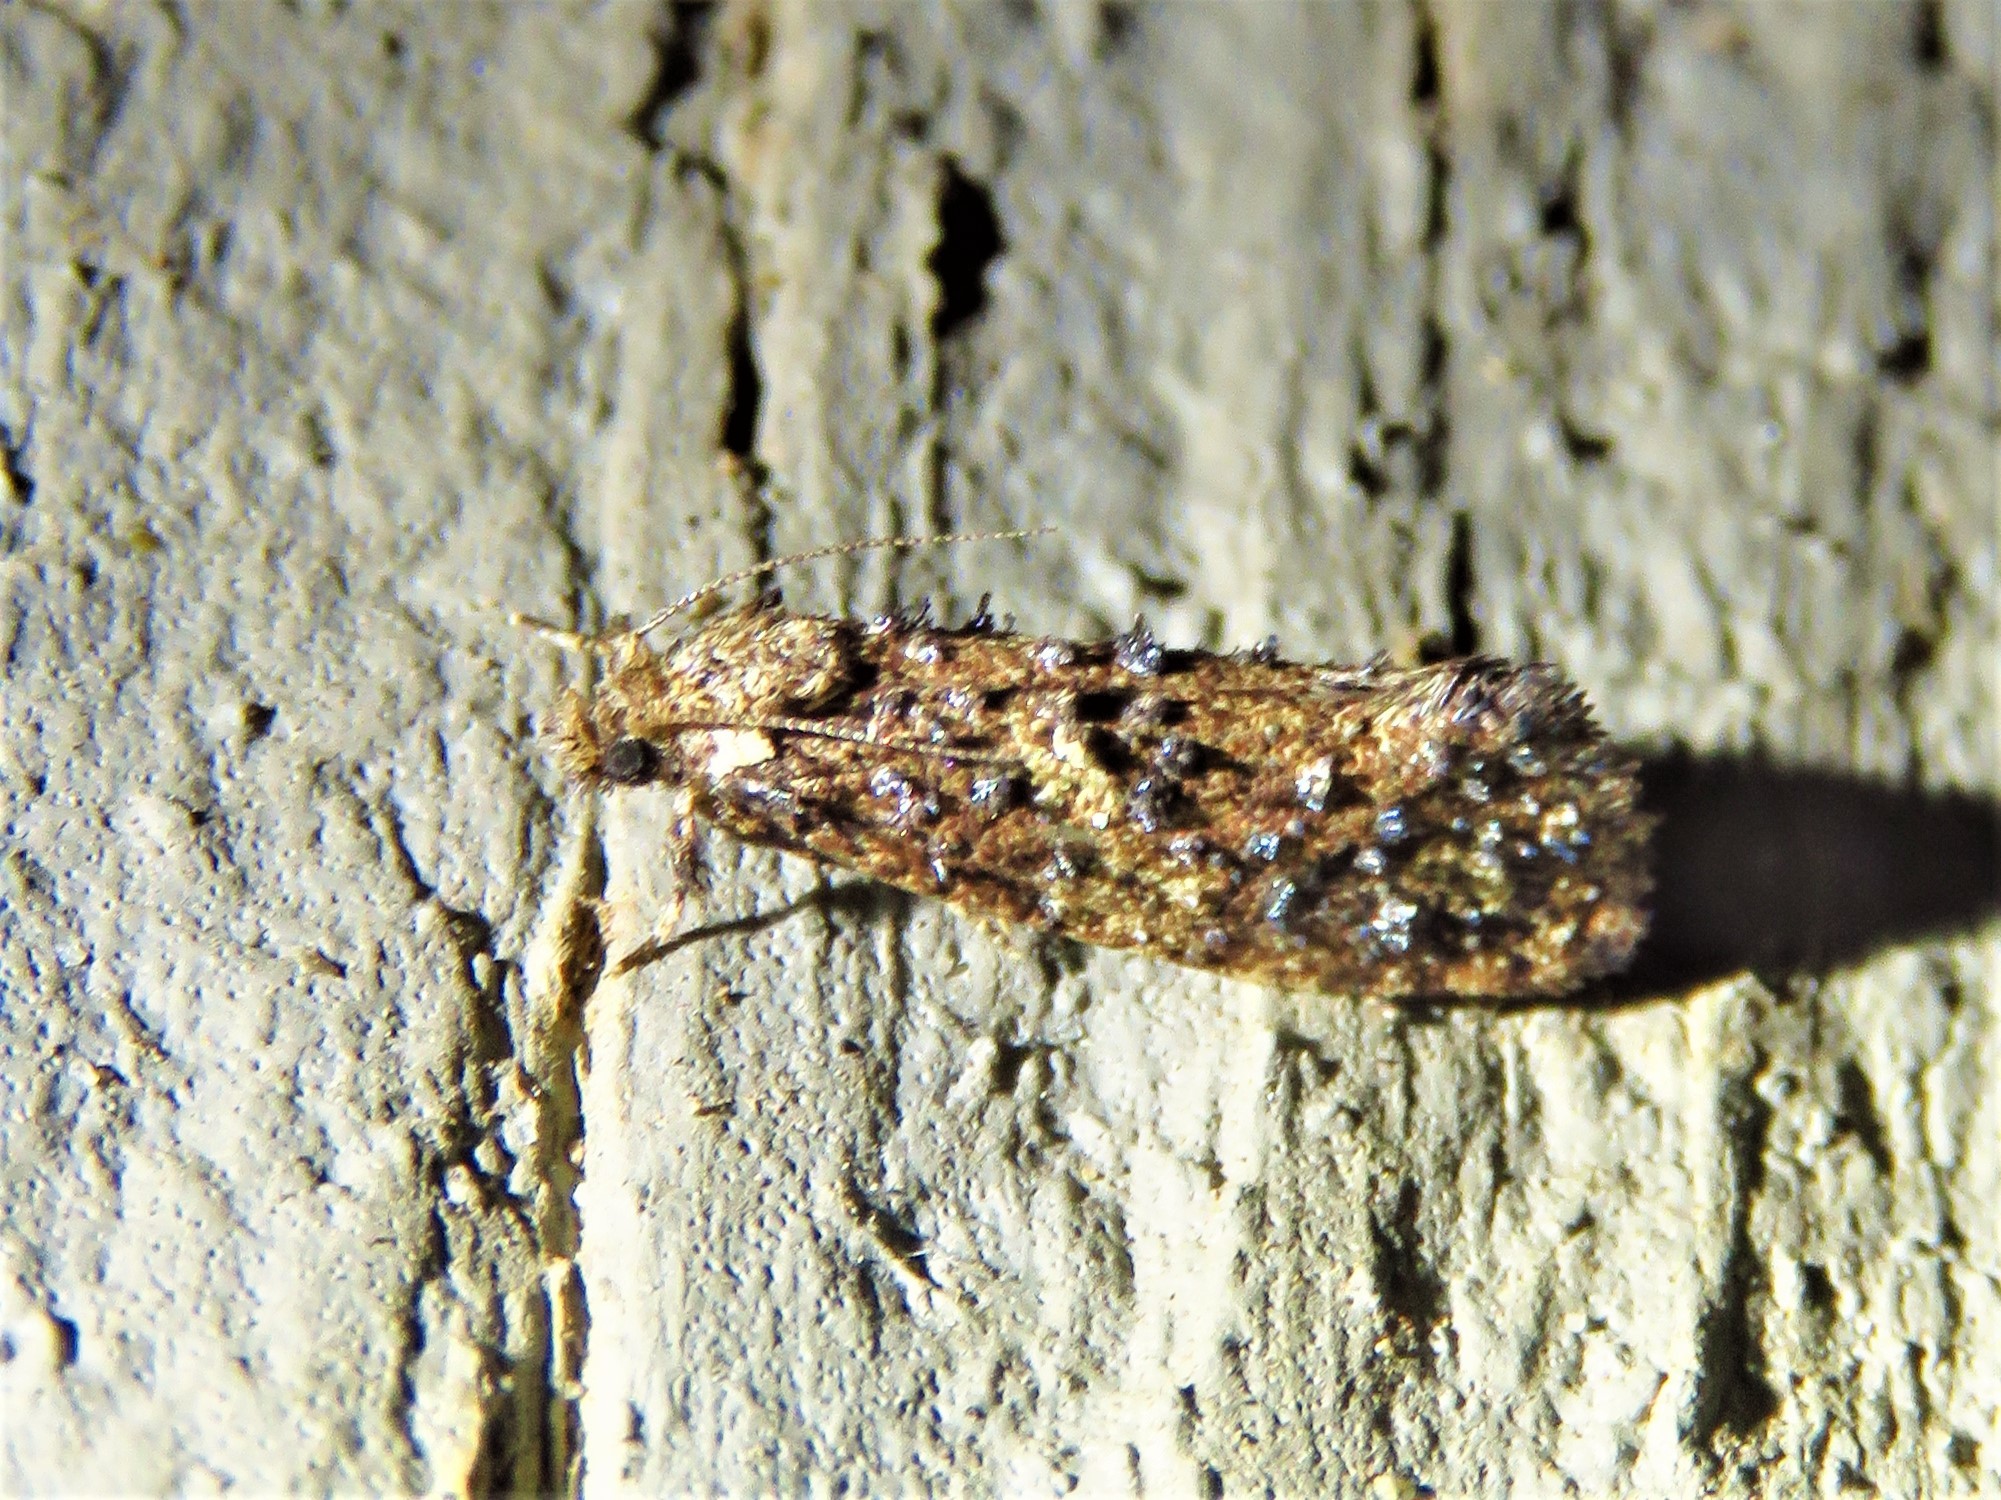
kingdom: Animalia
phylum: Arthropoda
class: Insecta
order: Lepidoptera
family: Tineidae
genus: Acrolophus
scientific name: Acrolophus cressoni
